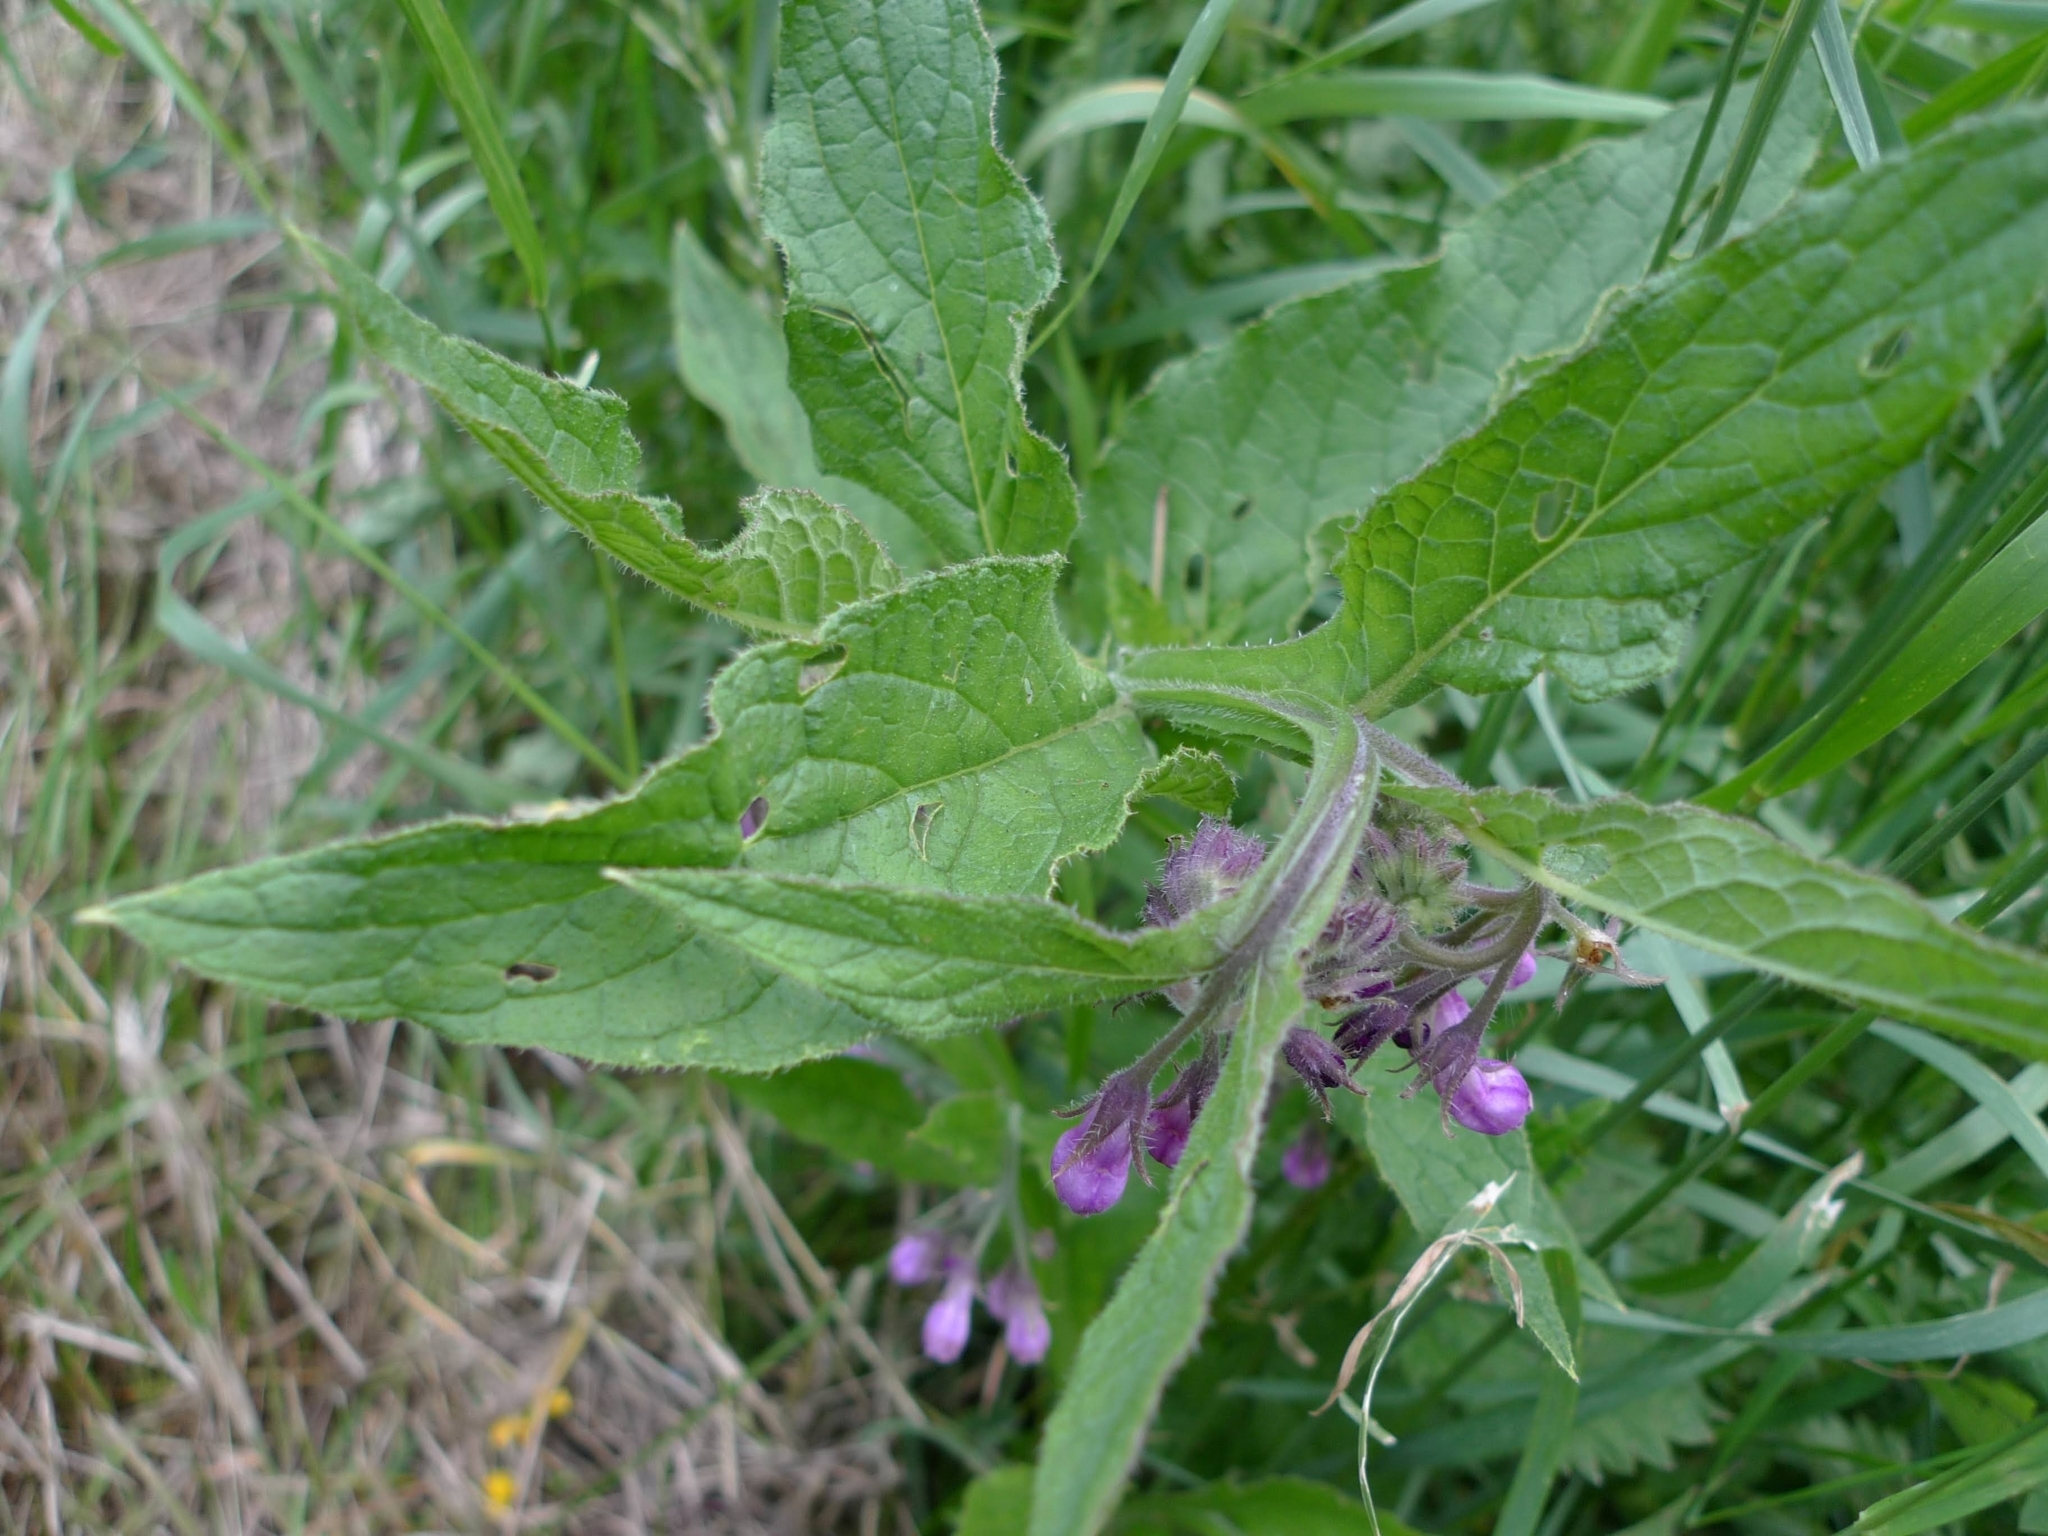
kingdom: Plantae
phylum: Tracheophyta
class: Magnoliopsida
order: Boraginales
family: Boraginaceae
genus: Symphytum
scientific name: Symphytum officinale
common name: Common comfrey
